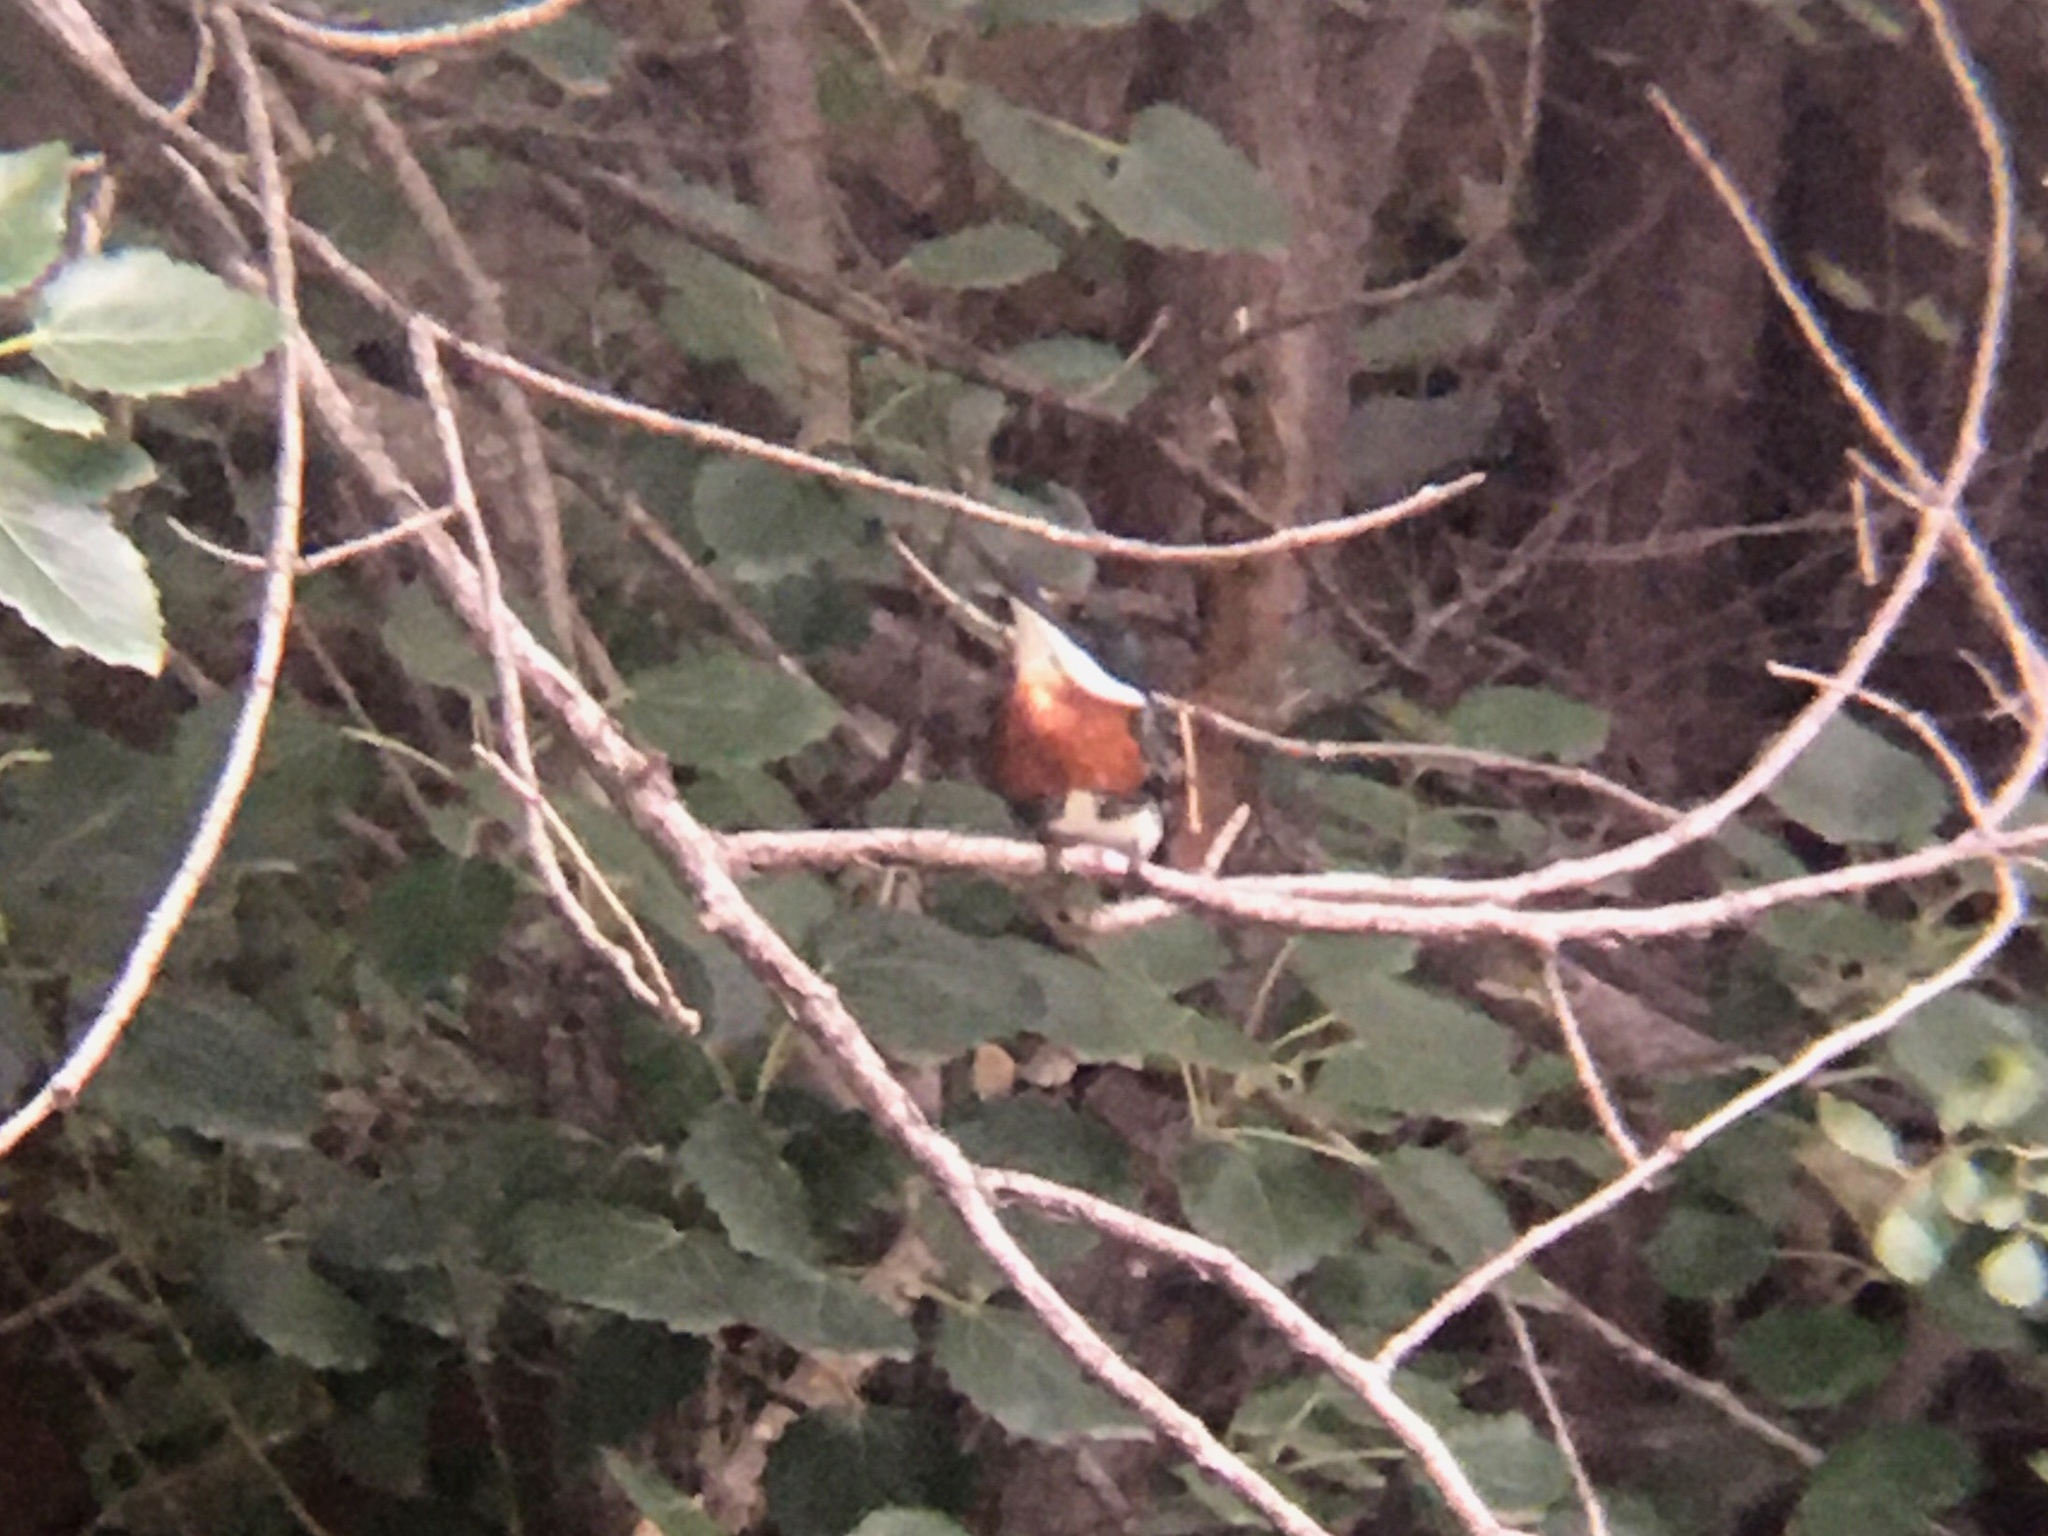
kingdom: Animalia
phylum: Chordata
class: Aves
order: Coraciiformes
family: Alcedinidae
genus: Chloroceryle
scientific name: Chloroceryle americana
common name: Green kingfisher
